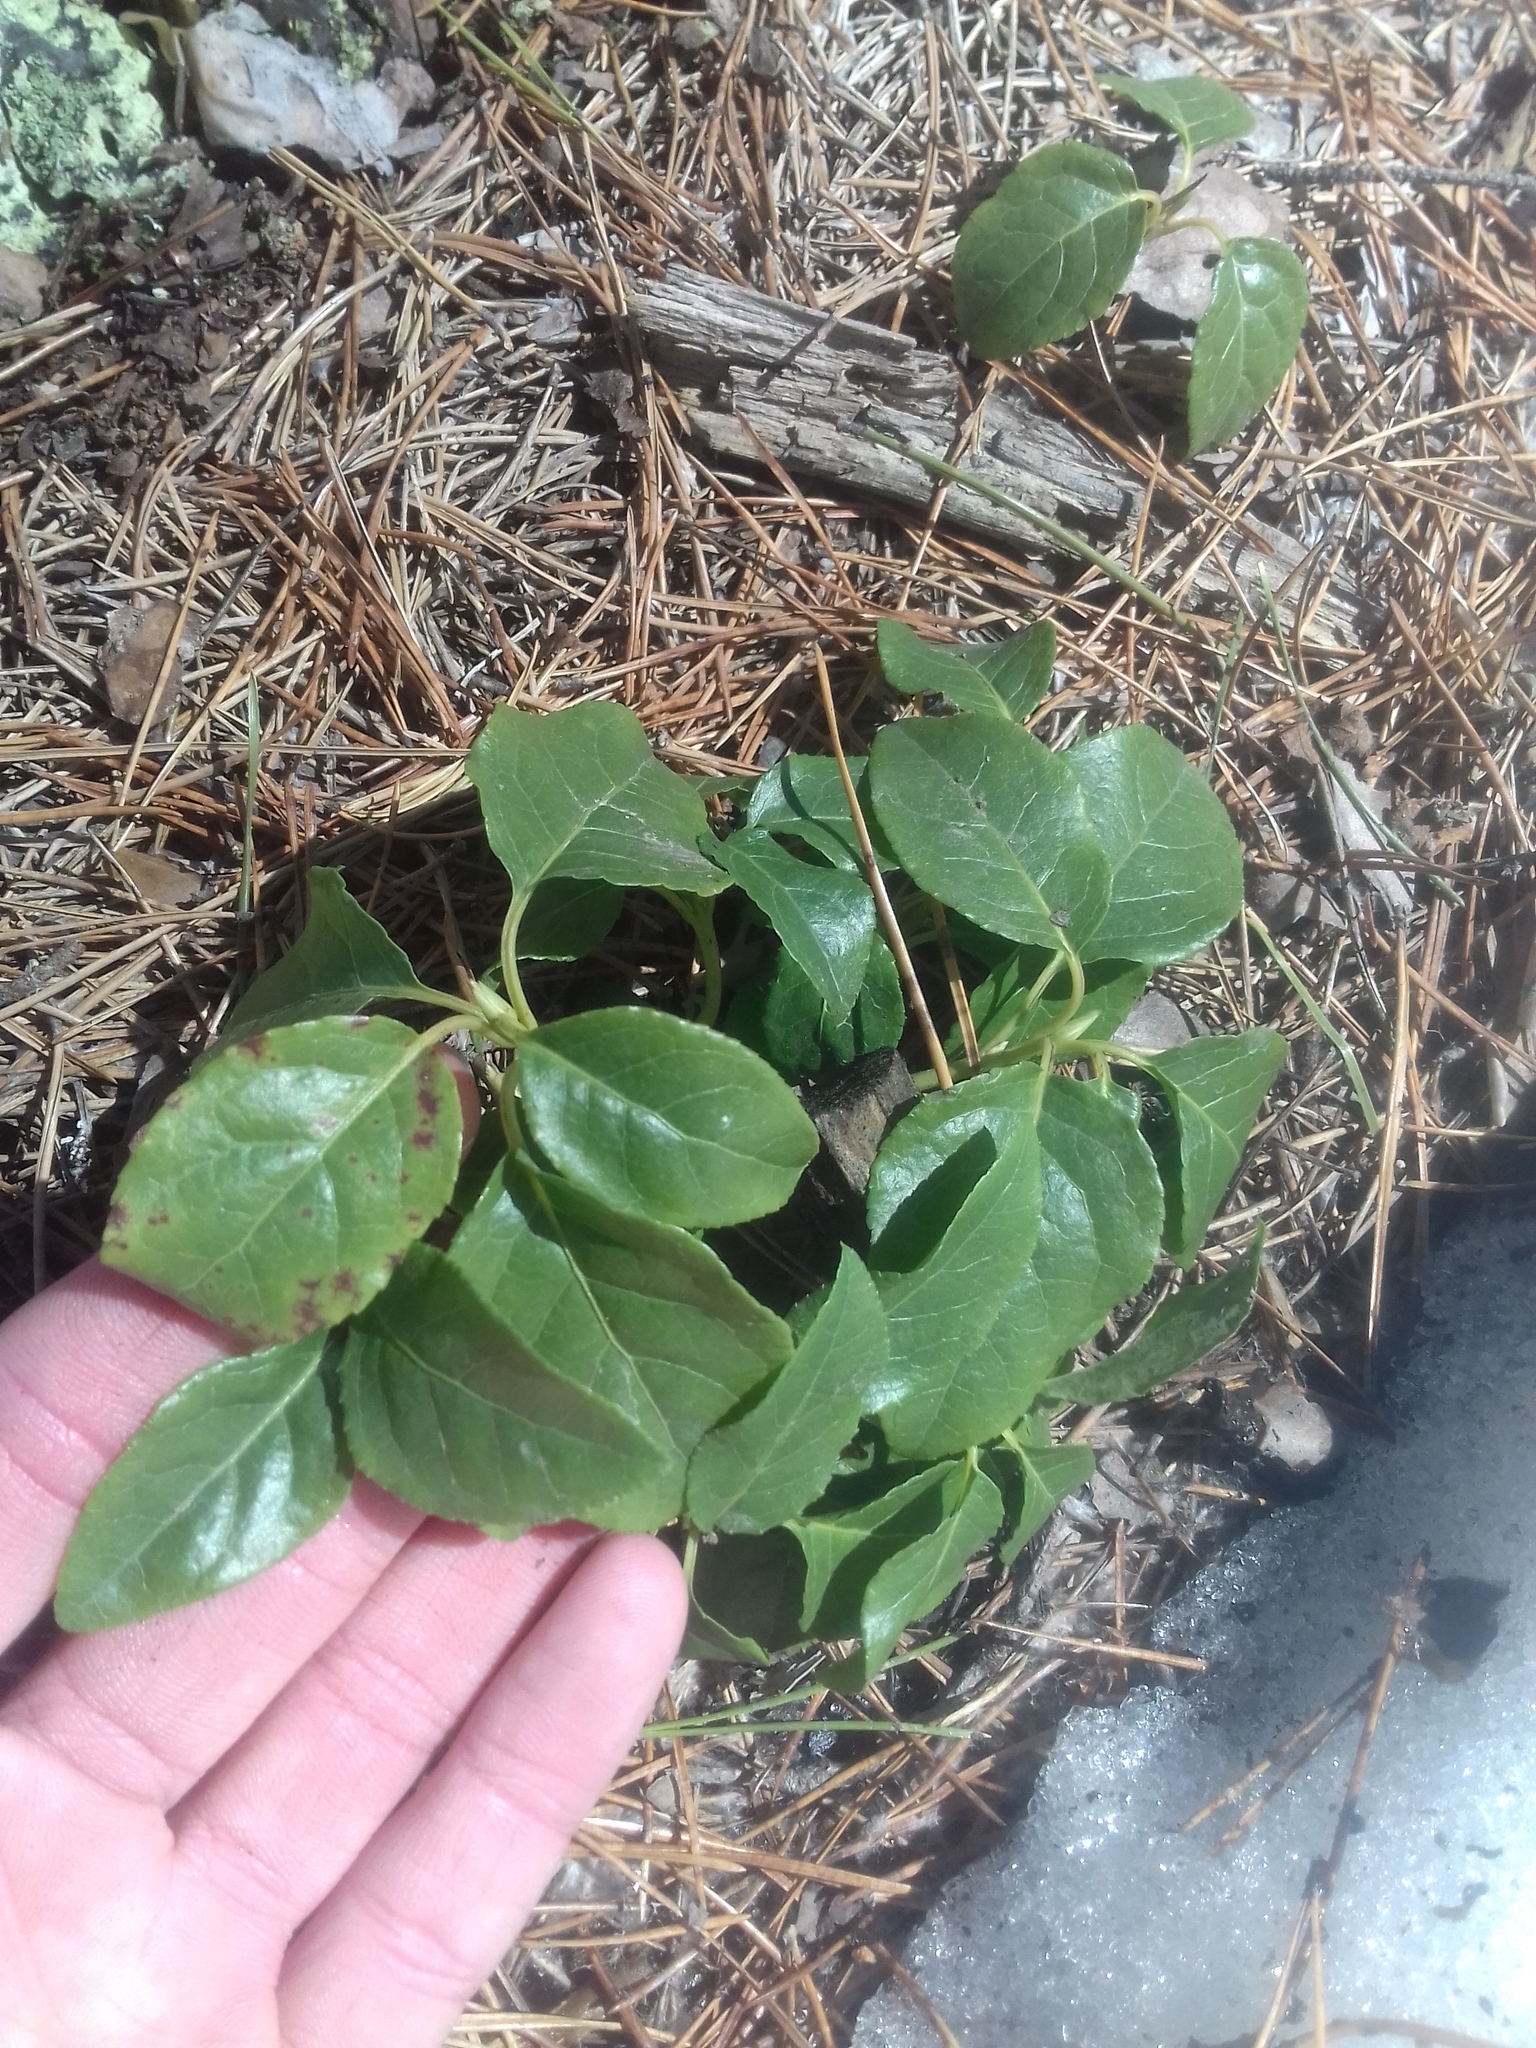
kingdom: Plantae
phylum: Tracheophyta
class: Magnoliopsida
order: Ericales
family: Ericaceae
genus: Orthilia
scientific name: Orthilia secunda
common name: One-sided orthilia
